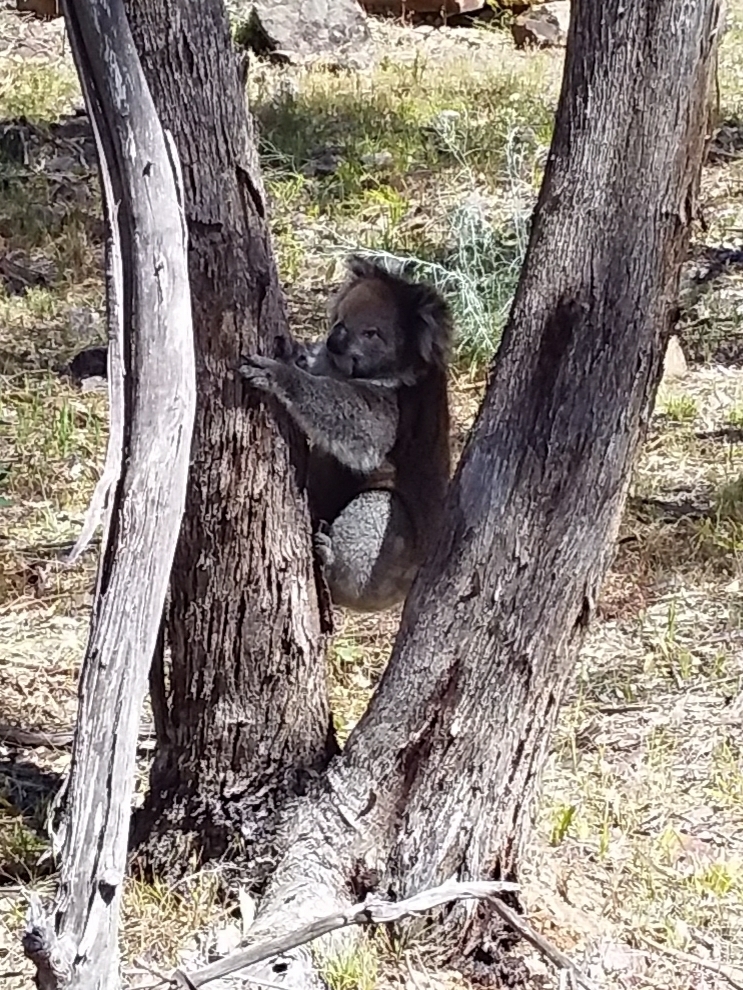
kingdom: Animalia
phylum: Chordata
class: Mammalia
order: Diprotodontia
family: Phascolarctidae
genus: Phascolarctos
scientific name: Phascolarctos cinereus
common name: Koala
